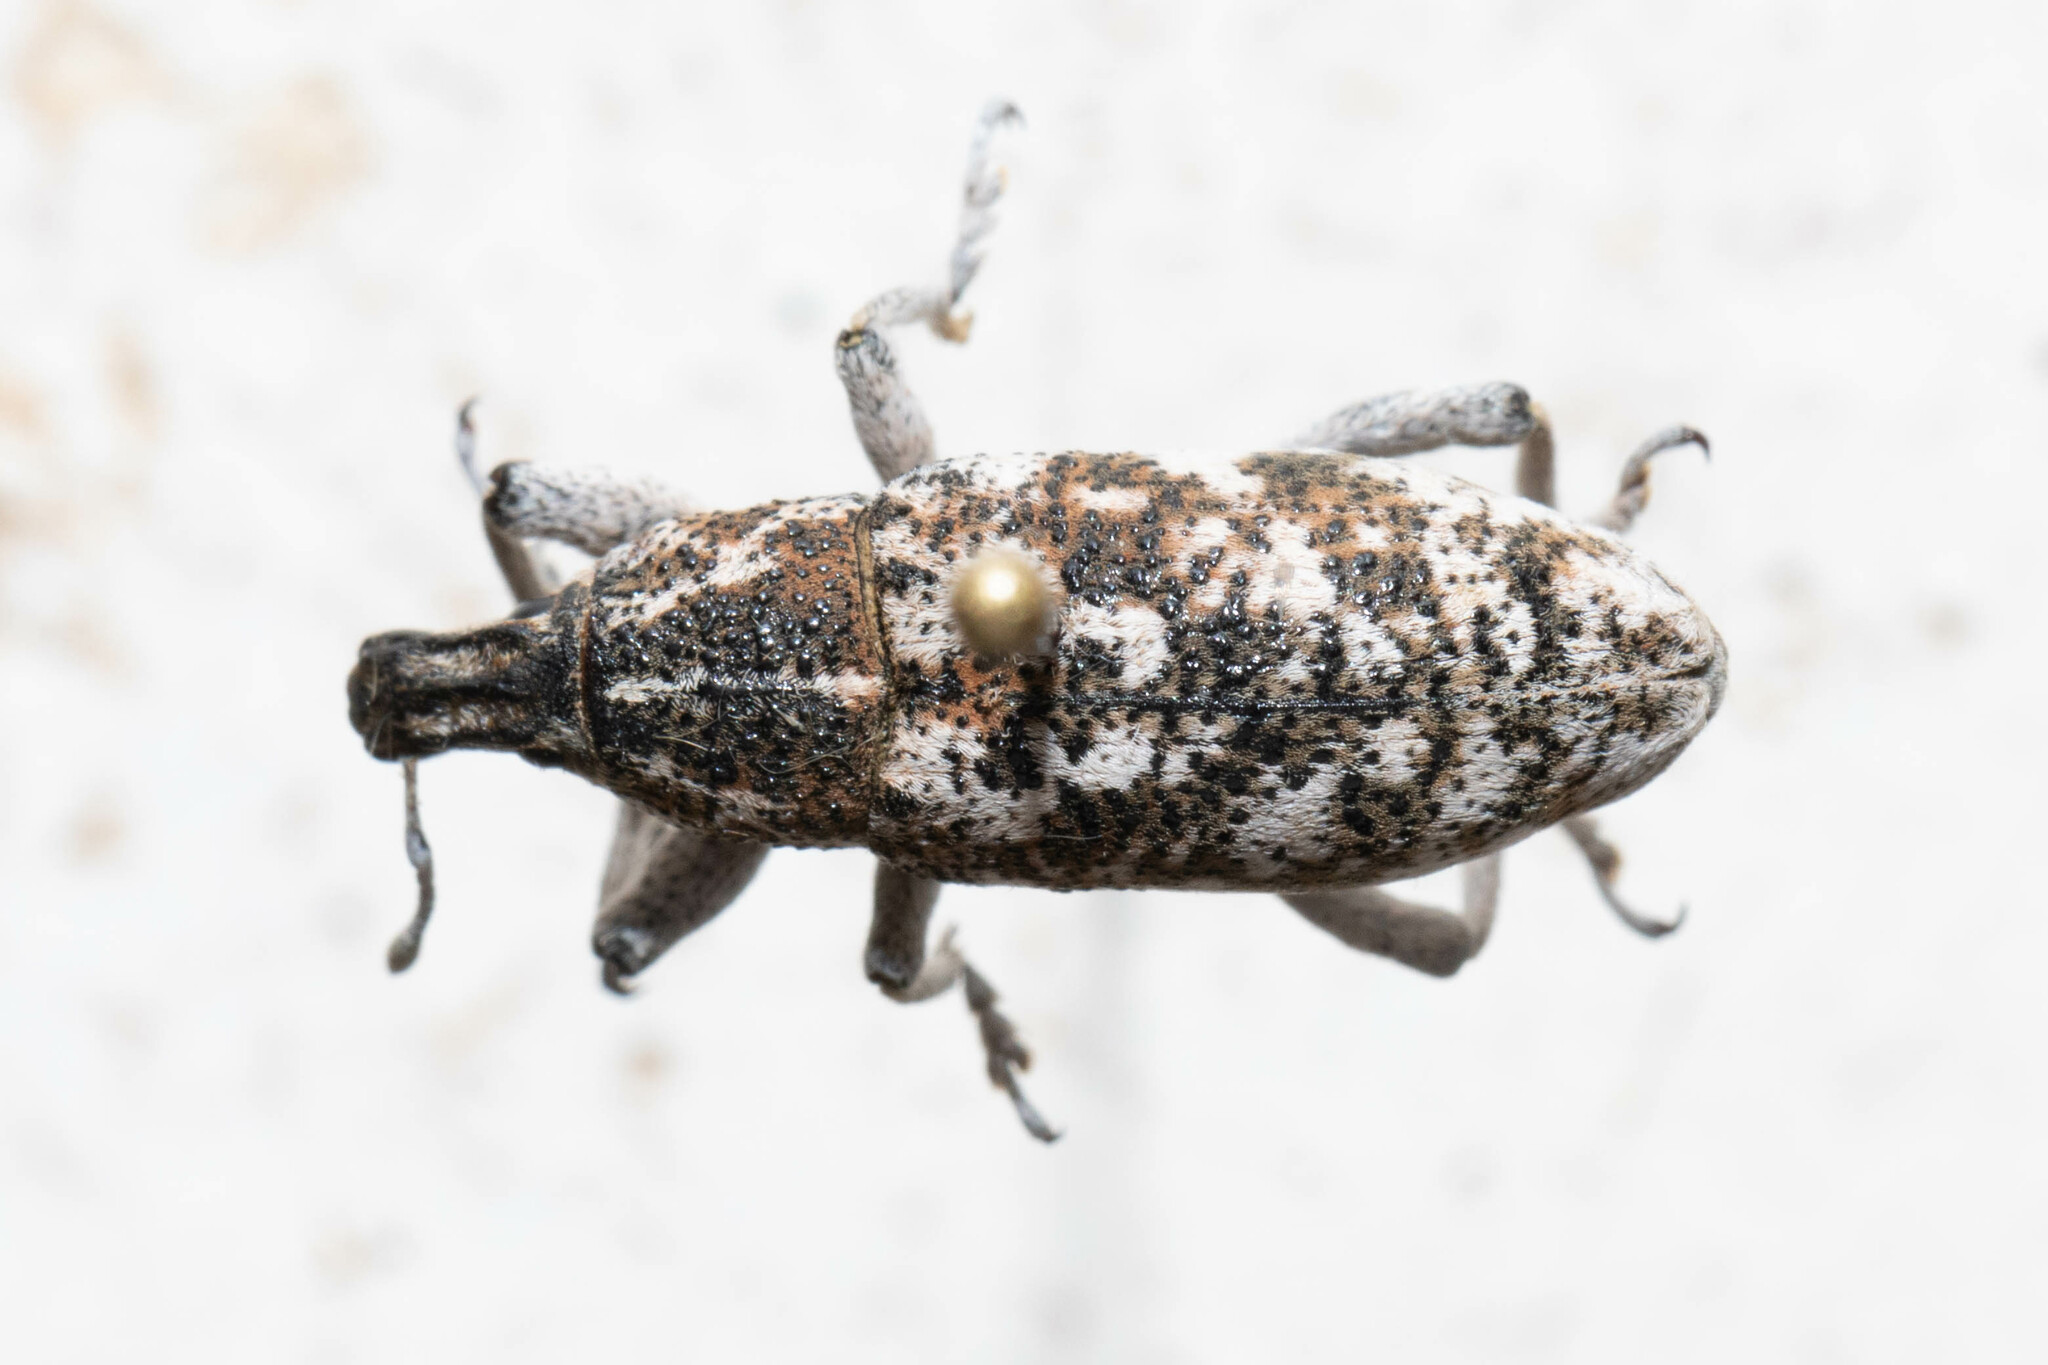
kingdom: Animalia
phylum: Arthropoda
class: Insecta
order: Coleoptera
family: Curculionidae
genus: Cleonus
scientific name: Cleonus achates
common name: Root weevil
